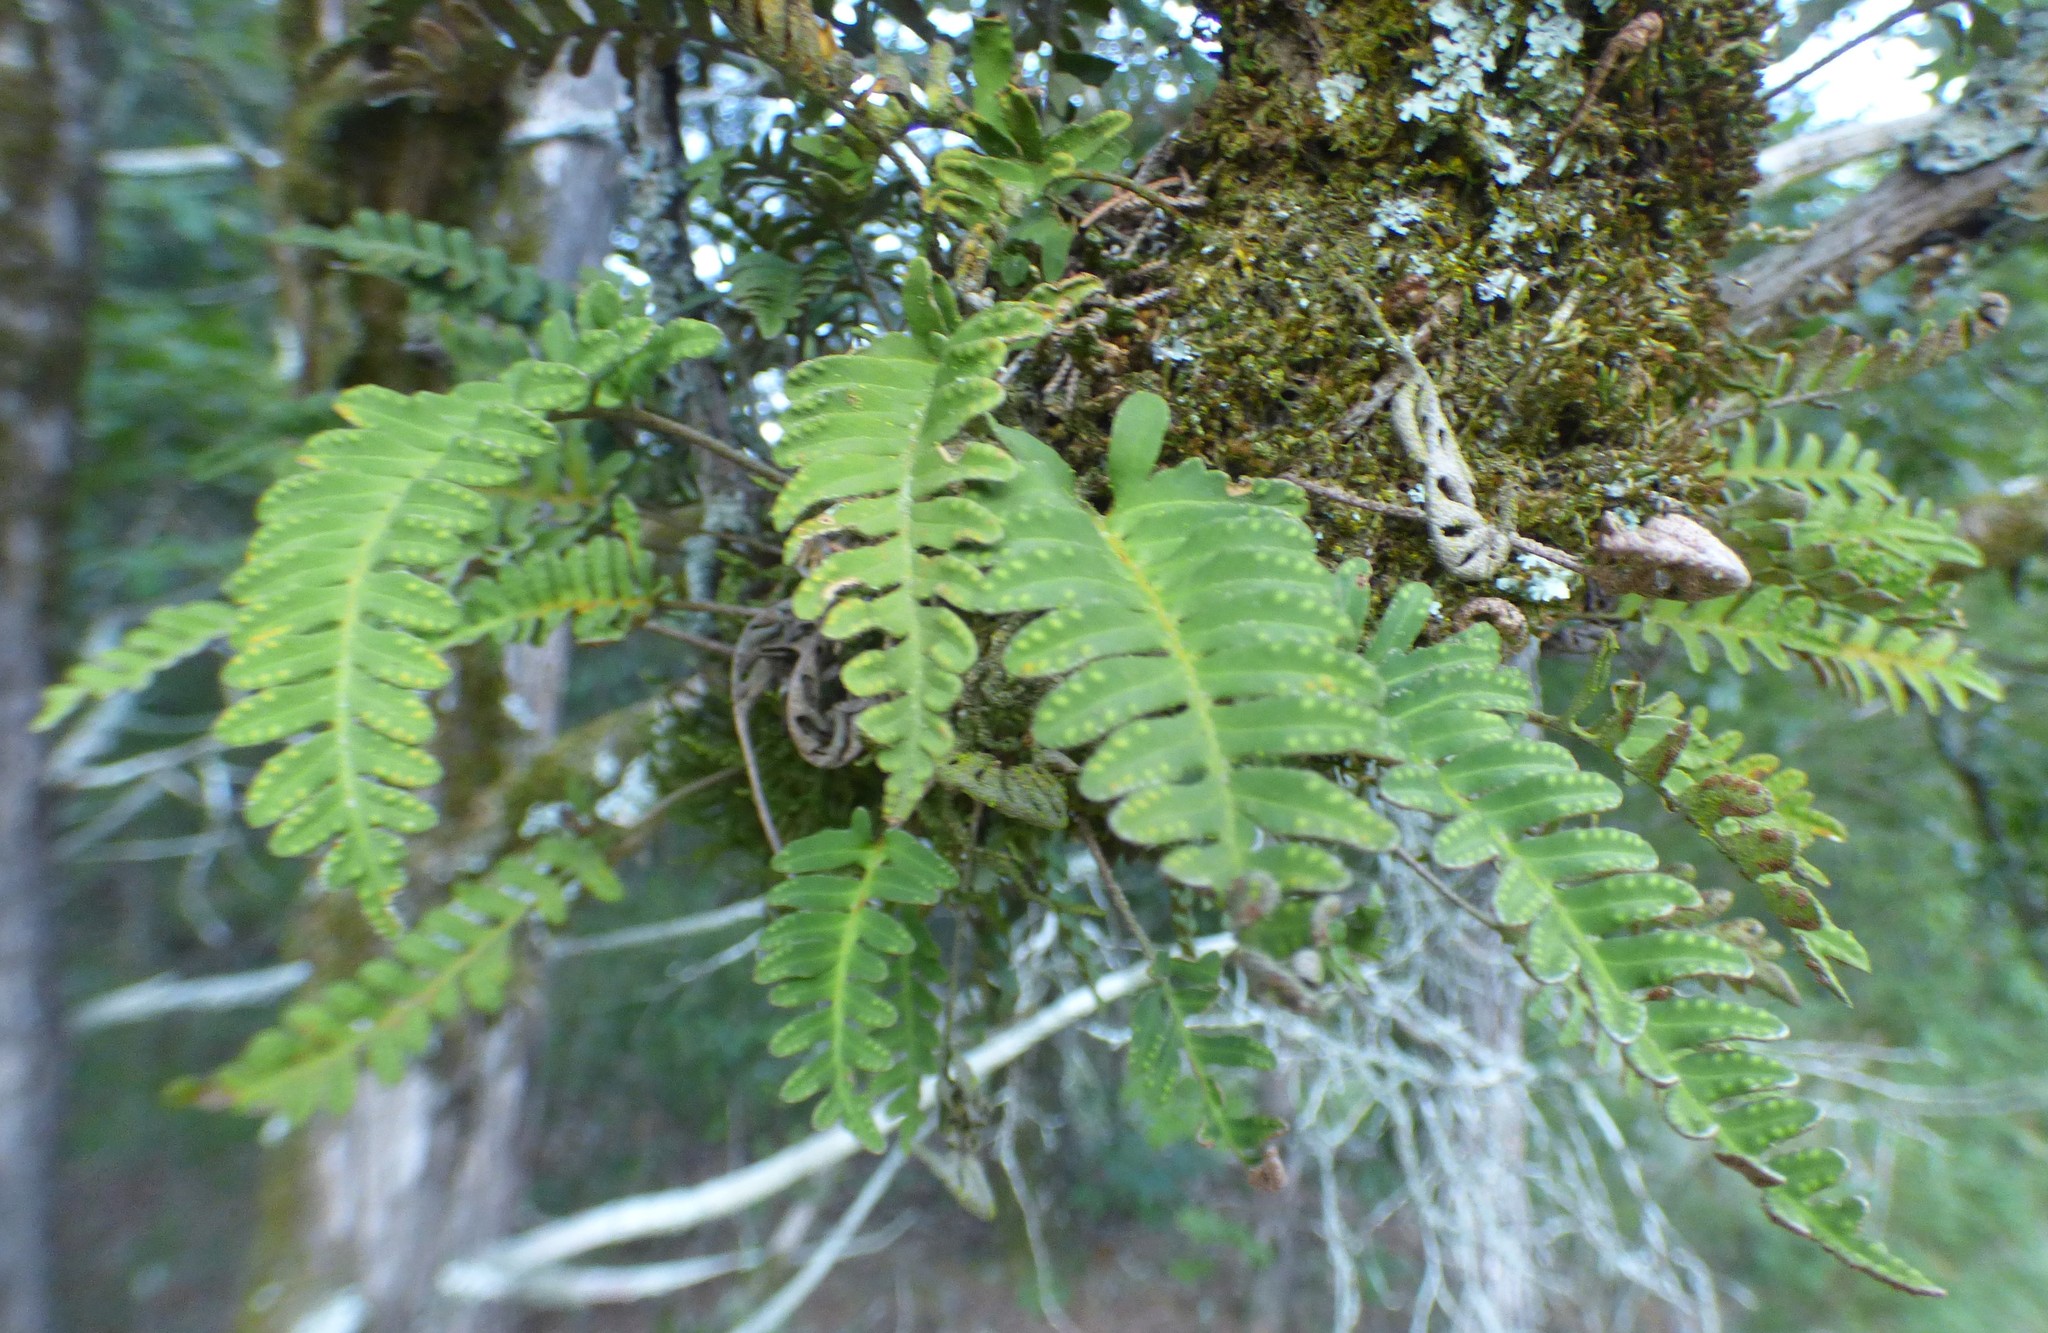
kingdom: Plantae
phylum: Tracheophyta
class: Polypodiopsida
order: Polypodiales
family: Polypodiaceae
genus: Pleopeltis
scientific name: Pleopeltis michauxiana
